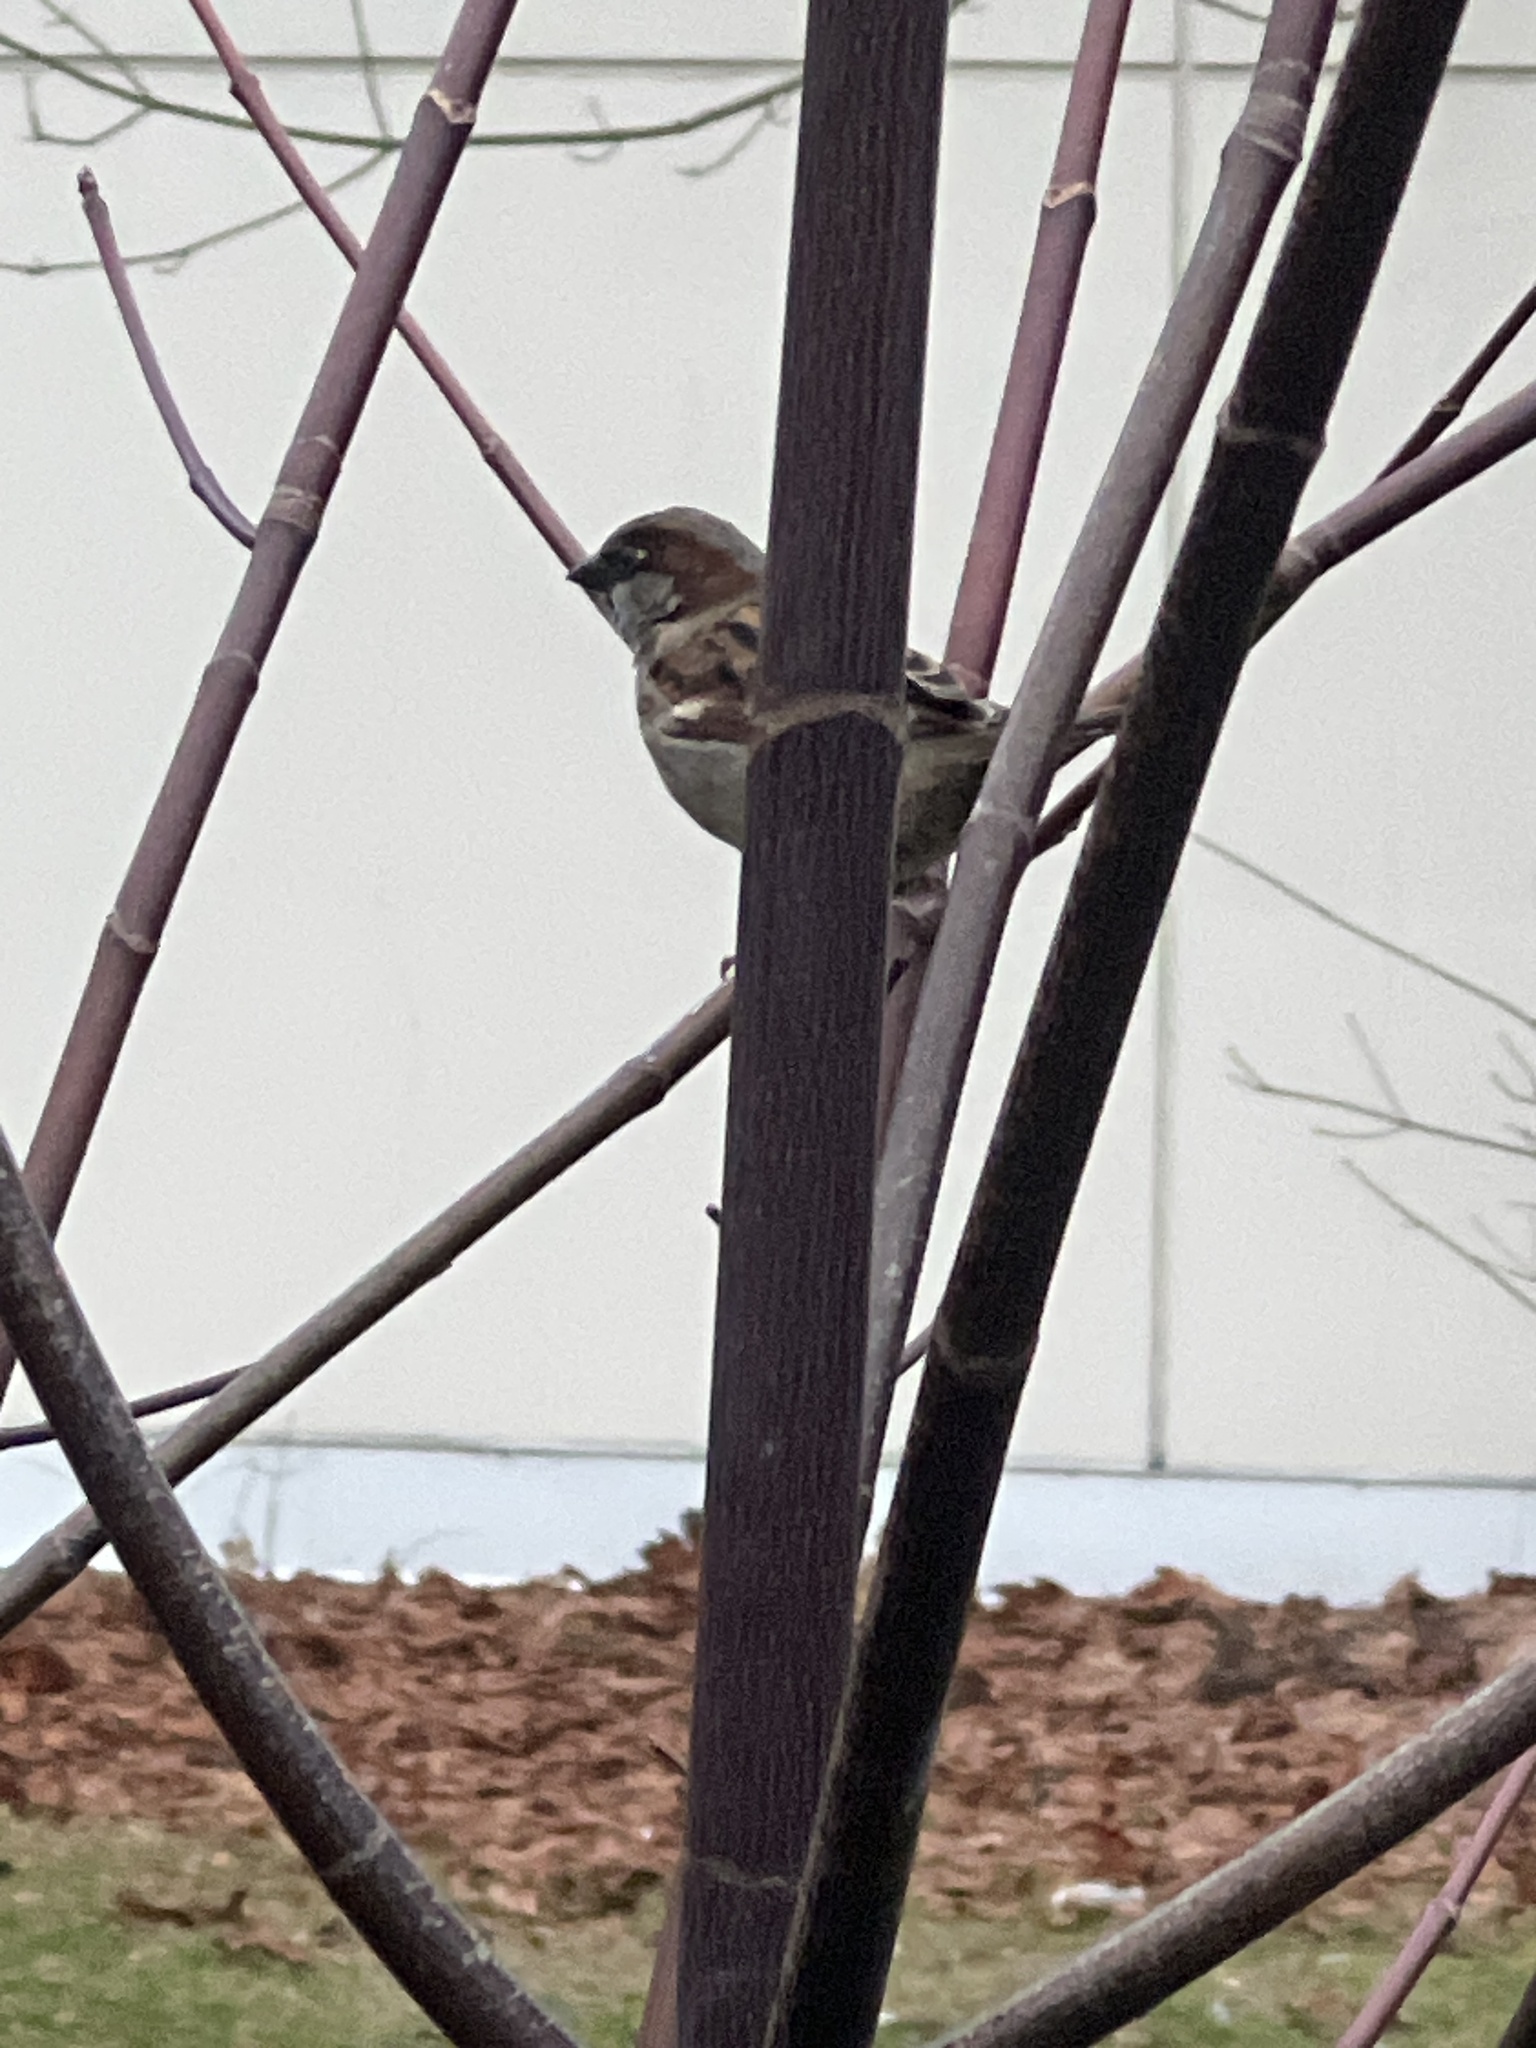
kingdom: Animalia
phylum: Chordata
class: Aves
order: Passeriformes
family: Passeridae
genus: Passer
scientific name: Passer domesticus
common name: House sparrow
